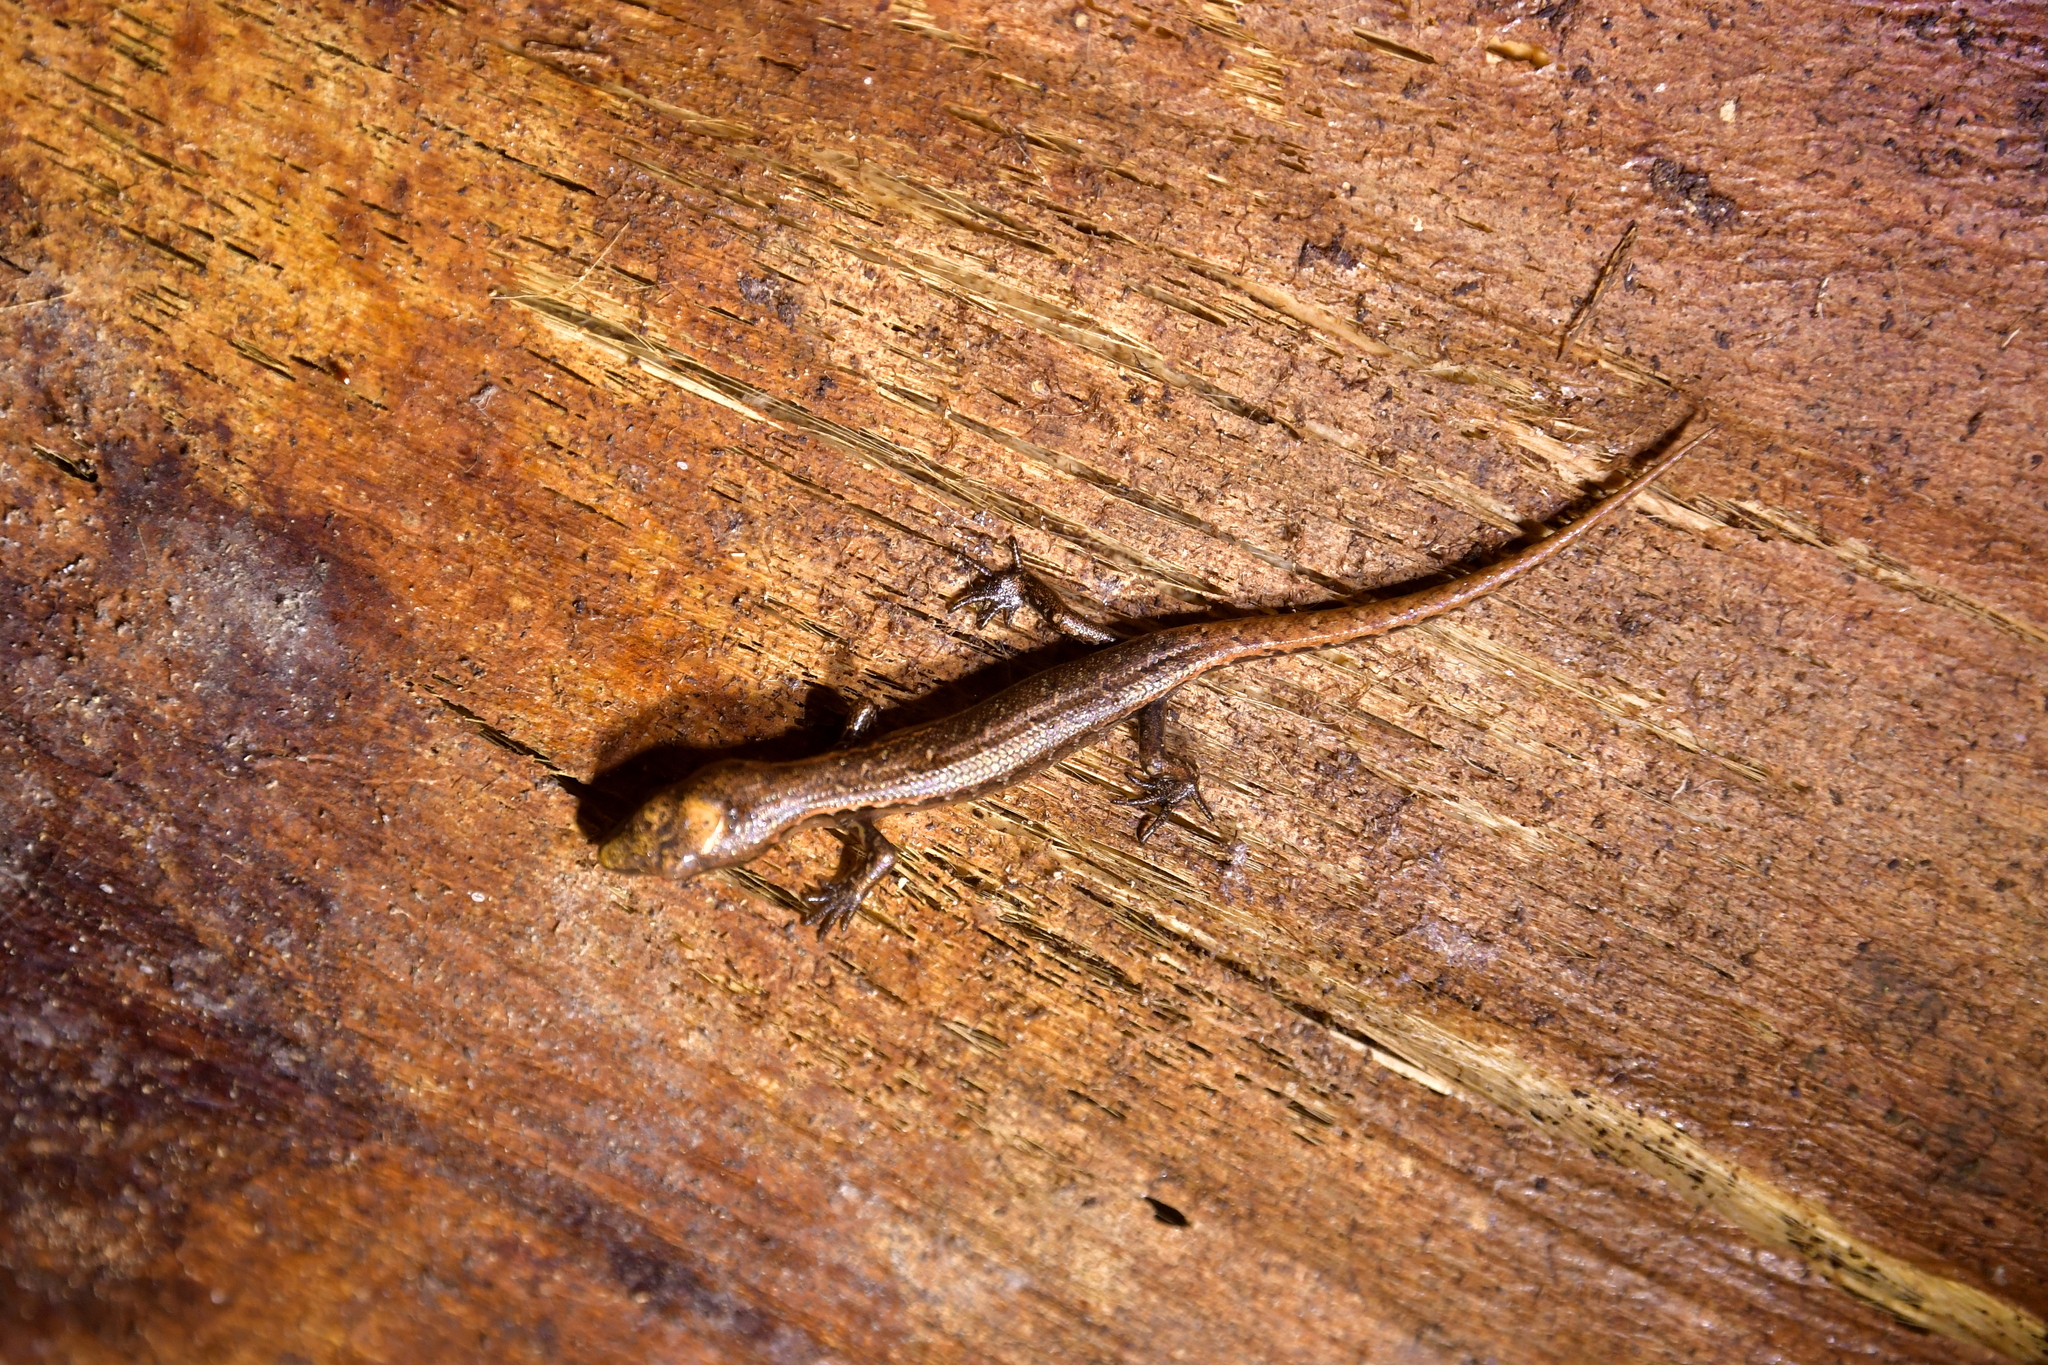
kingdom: Animalia
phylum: Chordata
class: Squamata
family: Scincidae
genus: Oligosoma
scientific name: Oligosoma ornatum
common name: Gray's ornate skink
